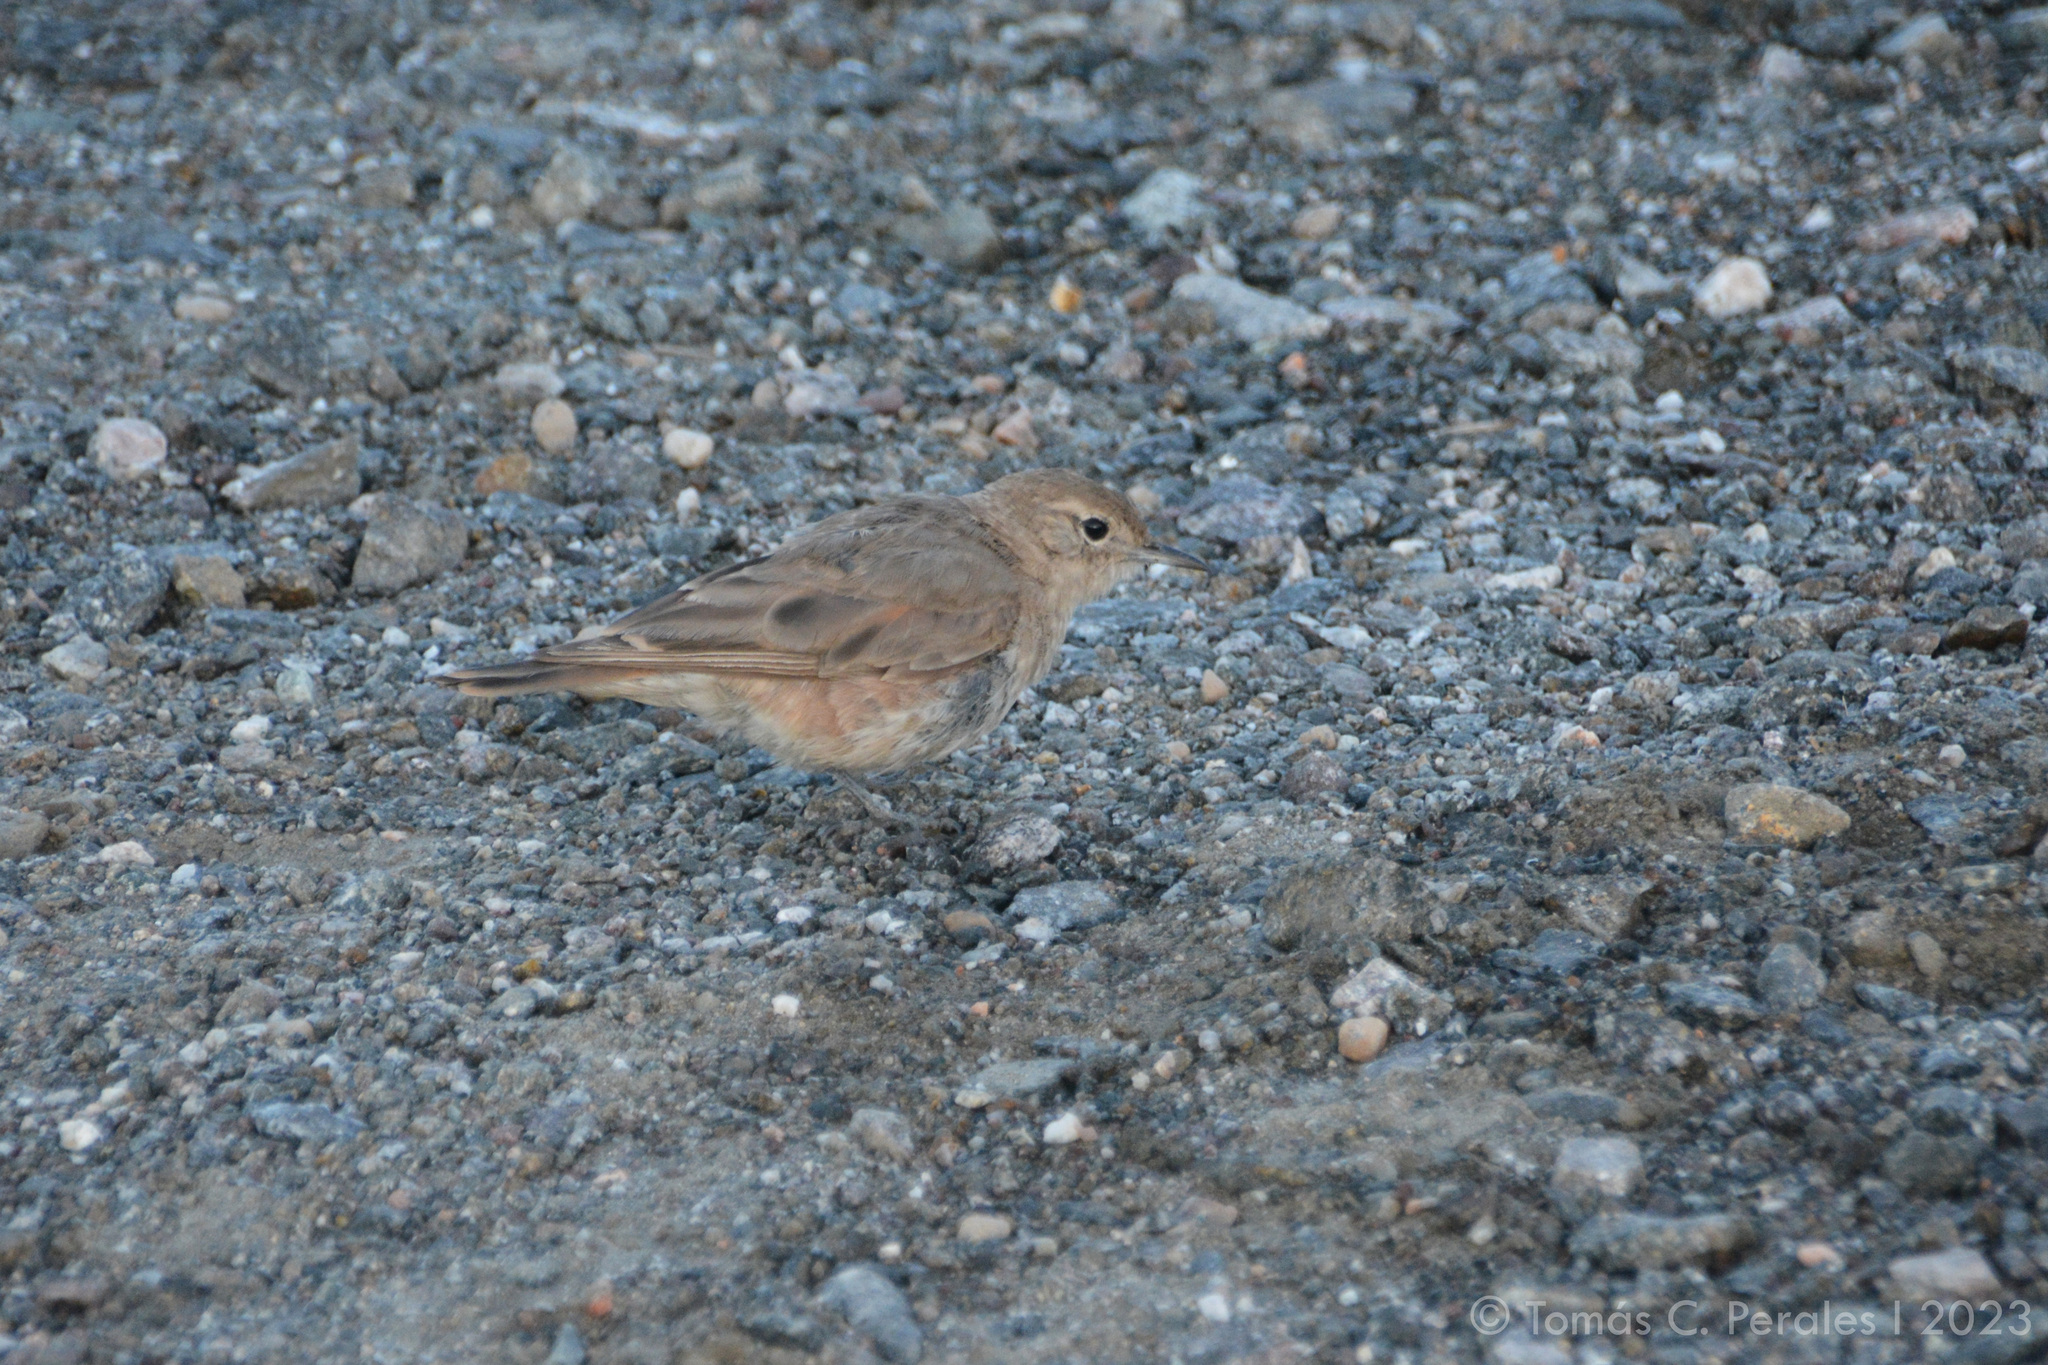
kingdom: Animalia
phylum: Chordata
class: Aves
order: Passeriformes
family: Furnariidae
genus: Geositta
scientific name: Geositta rufipennis
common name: Rufous-banded miner
